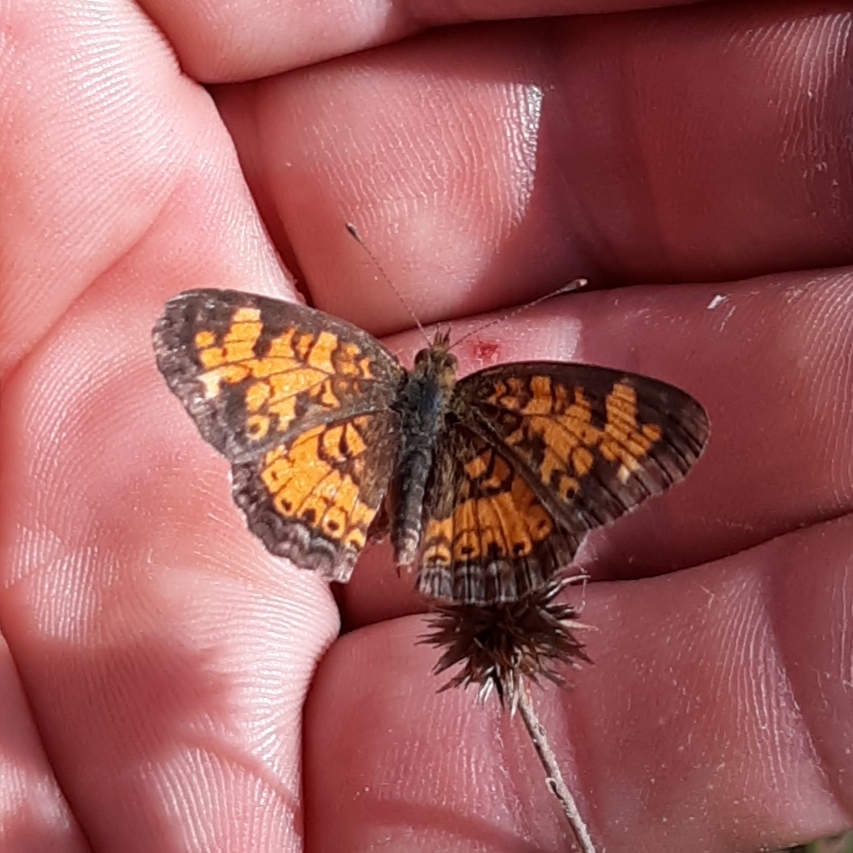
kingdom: Animalia
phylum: Arthropoda
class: Insecta
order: Lepidoptera
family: Nymphalidae
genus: Phyciodes
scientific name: Phyciodes tharos
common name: Pearl crescent
